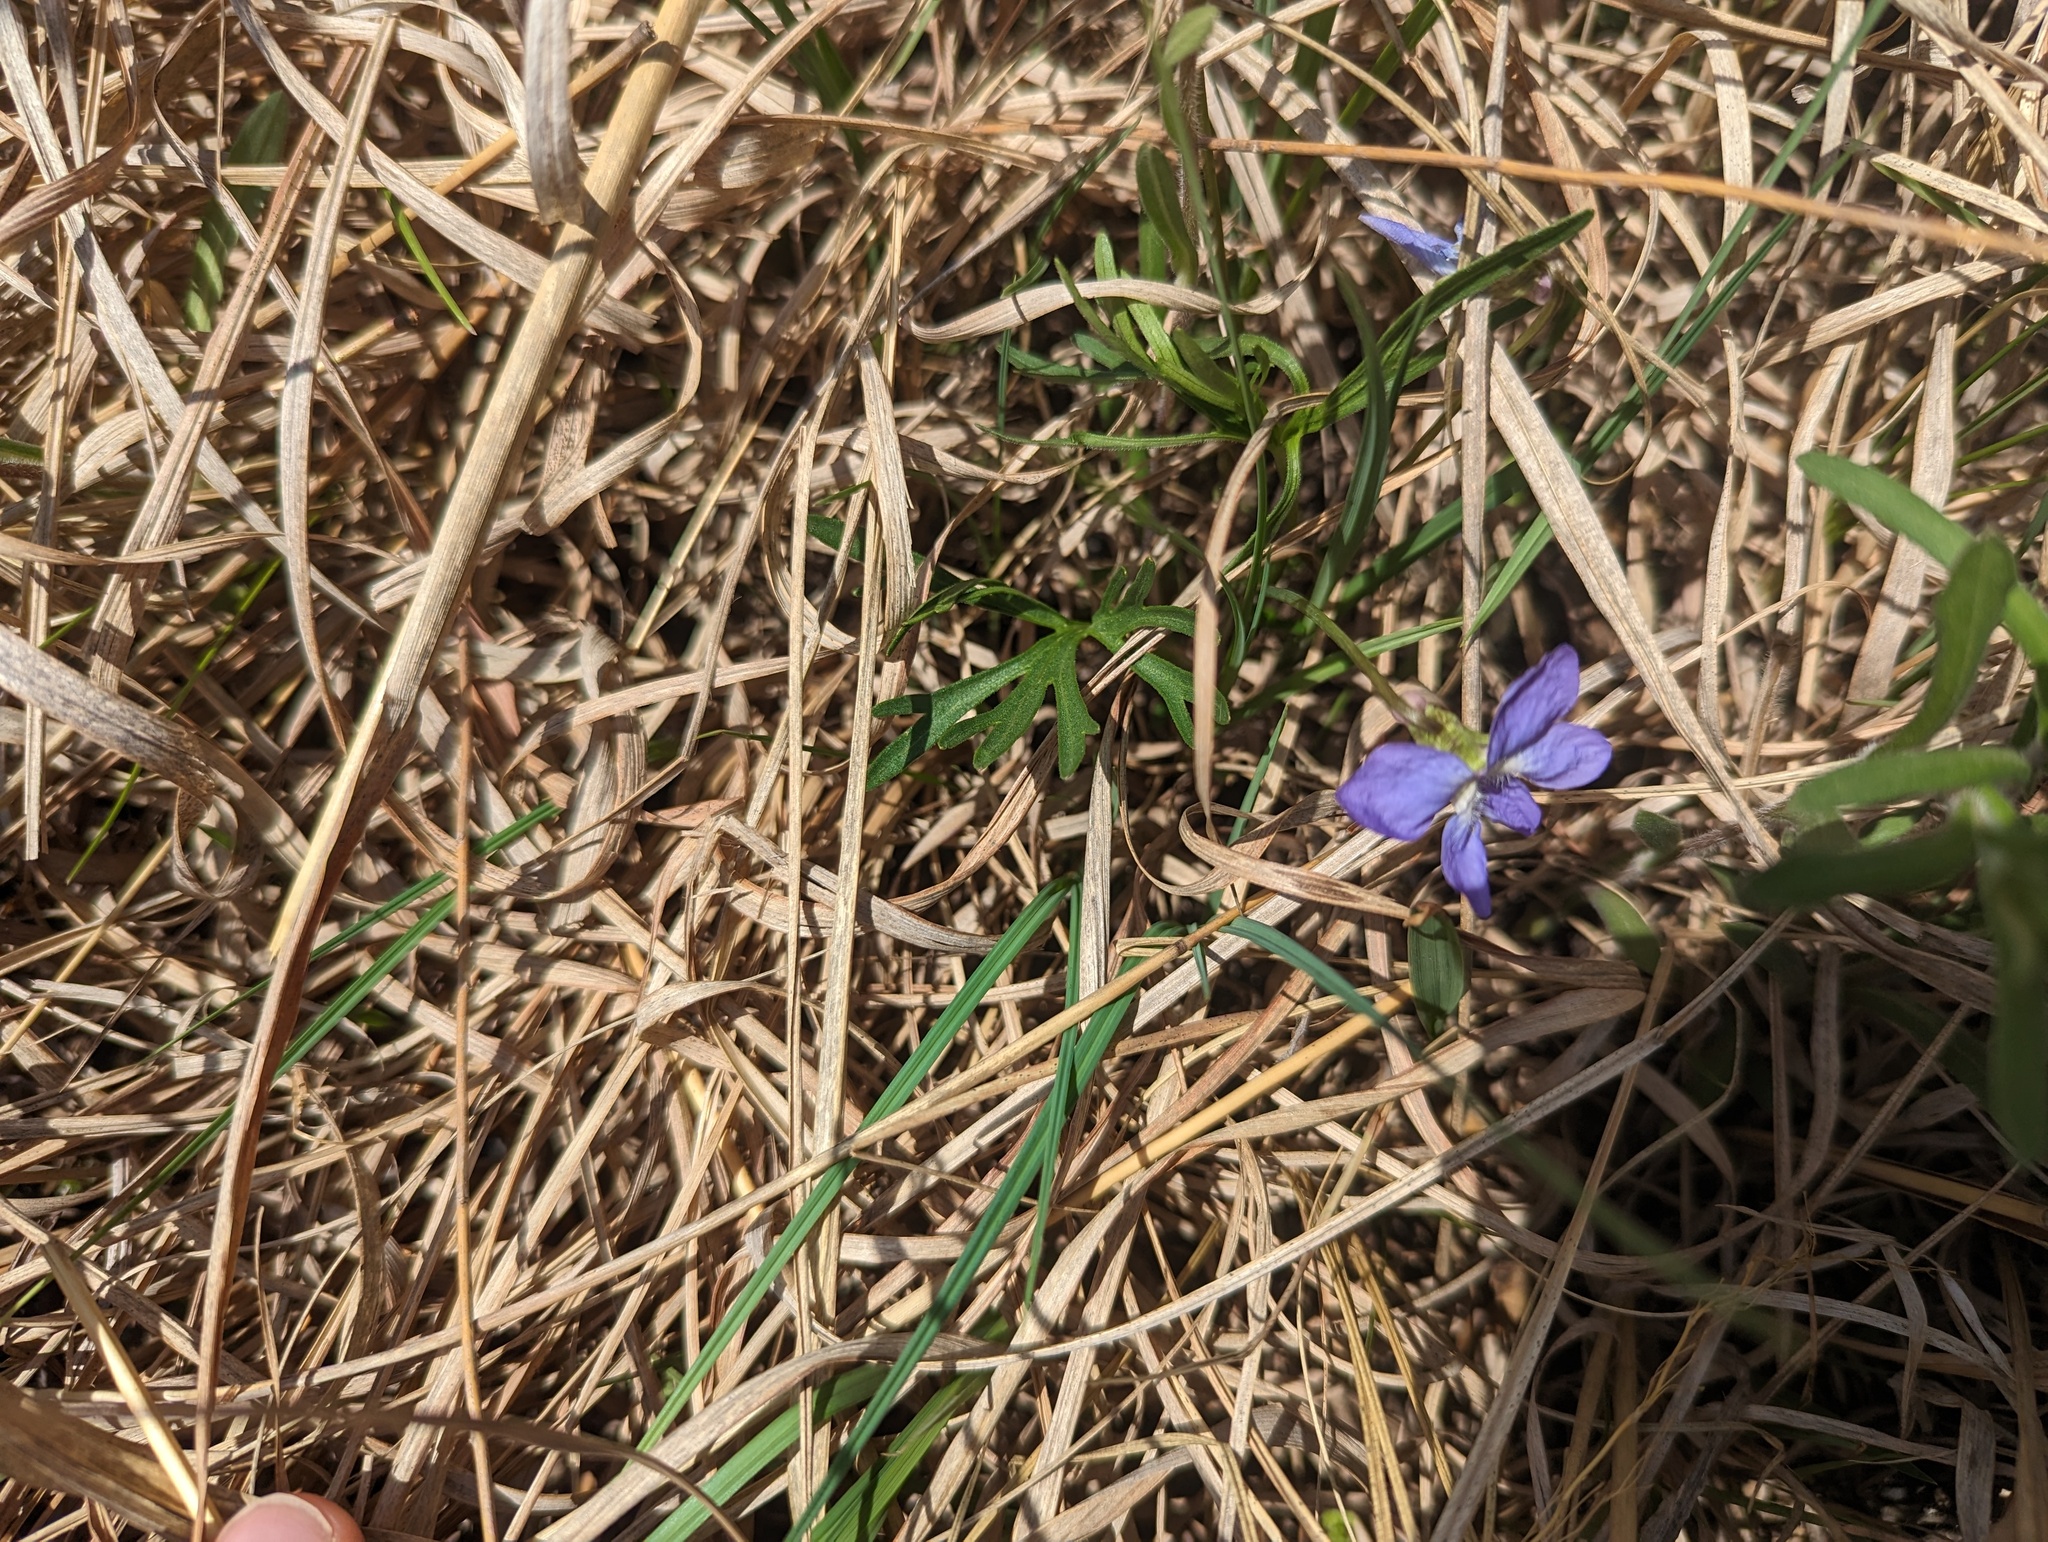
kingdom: Plantae
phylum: Tracheophyta
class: Magnoliopsida
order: Malpighiales
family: Violaceae
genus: Viola
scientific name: Viola pedatifida
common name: Prairie violet
